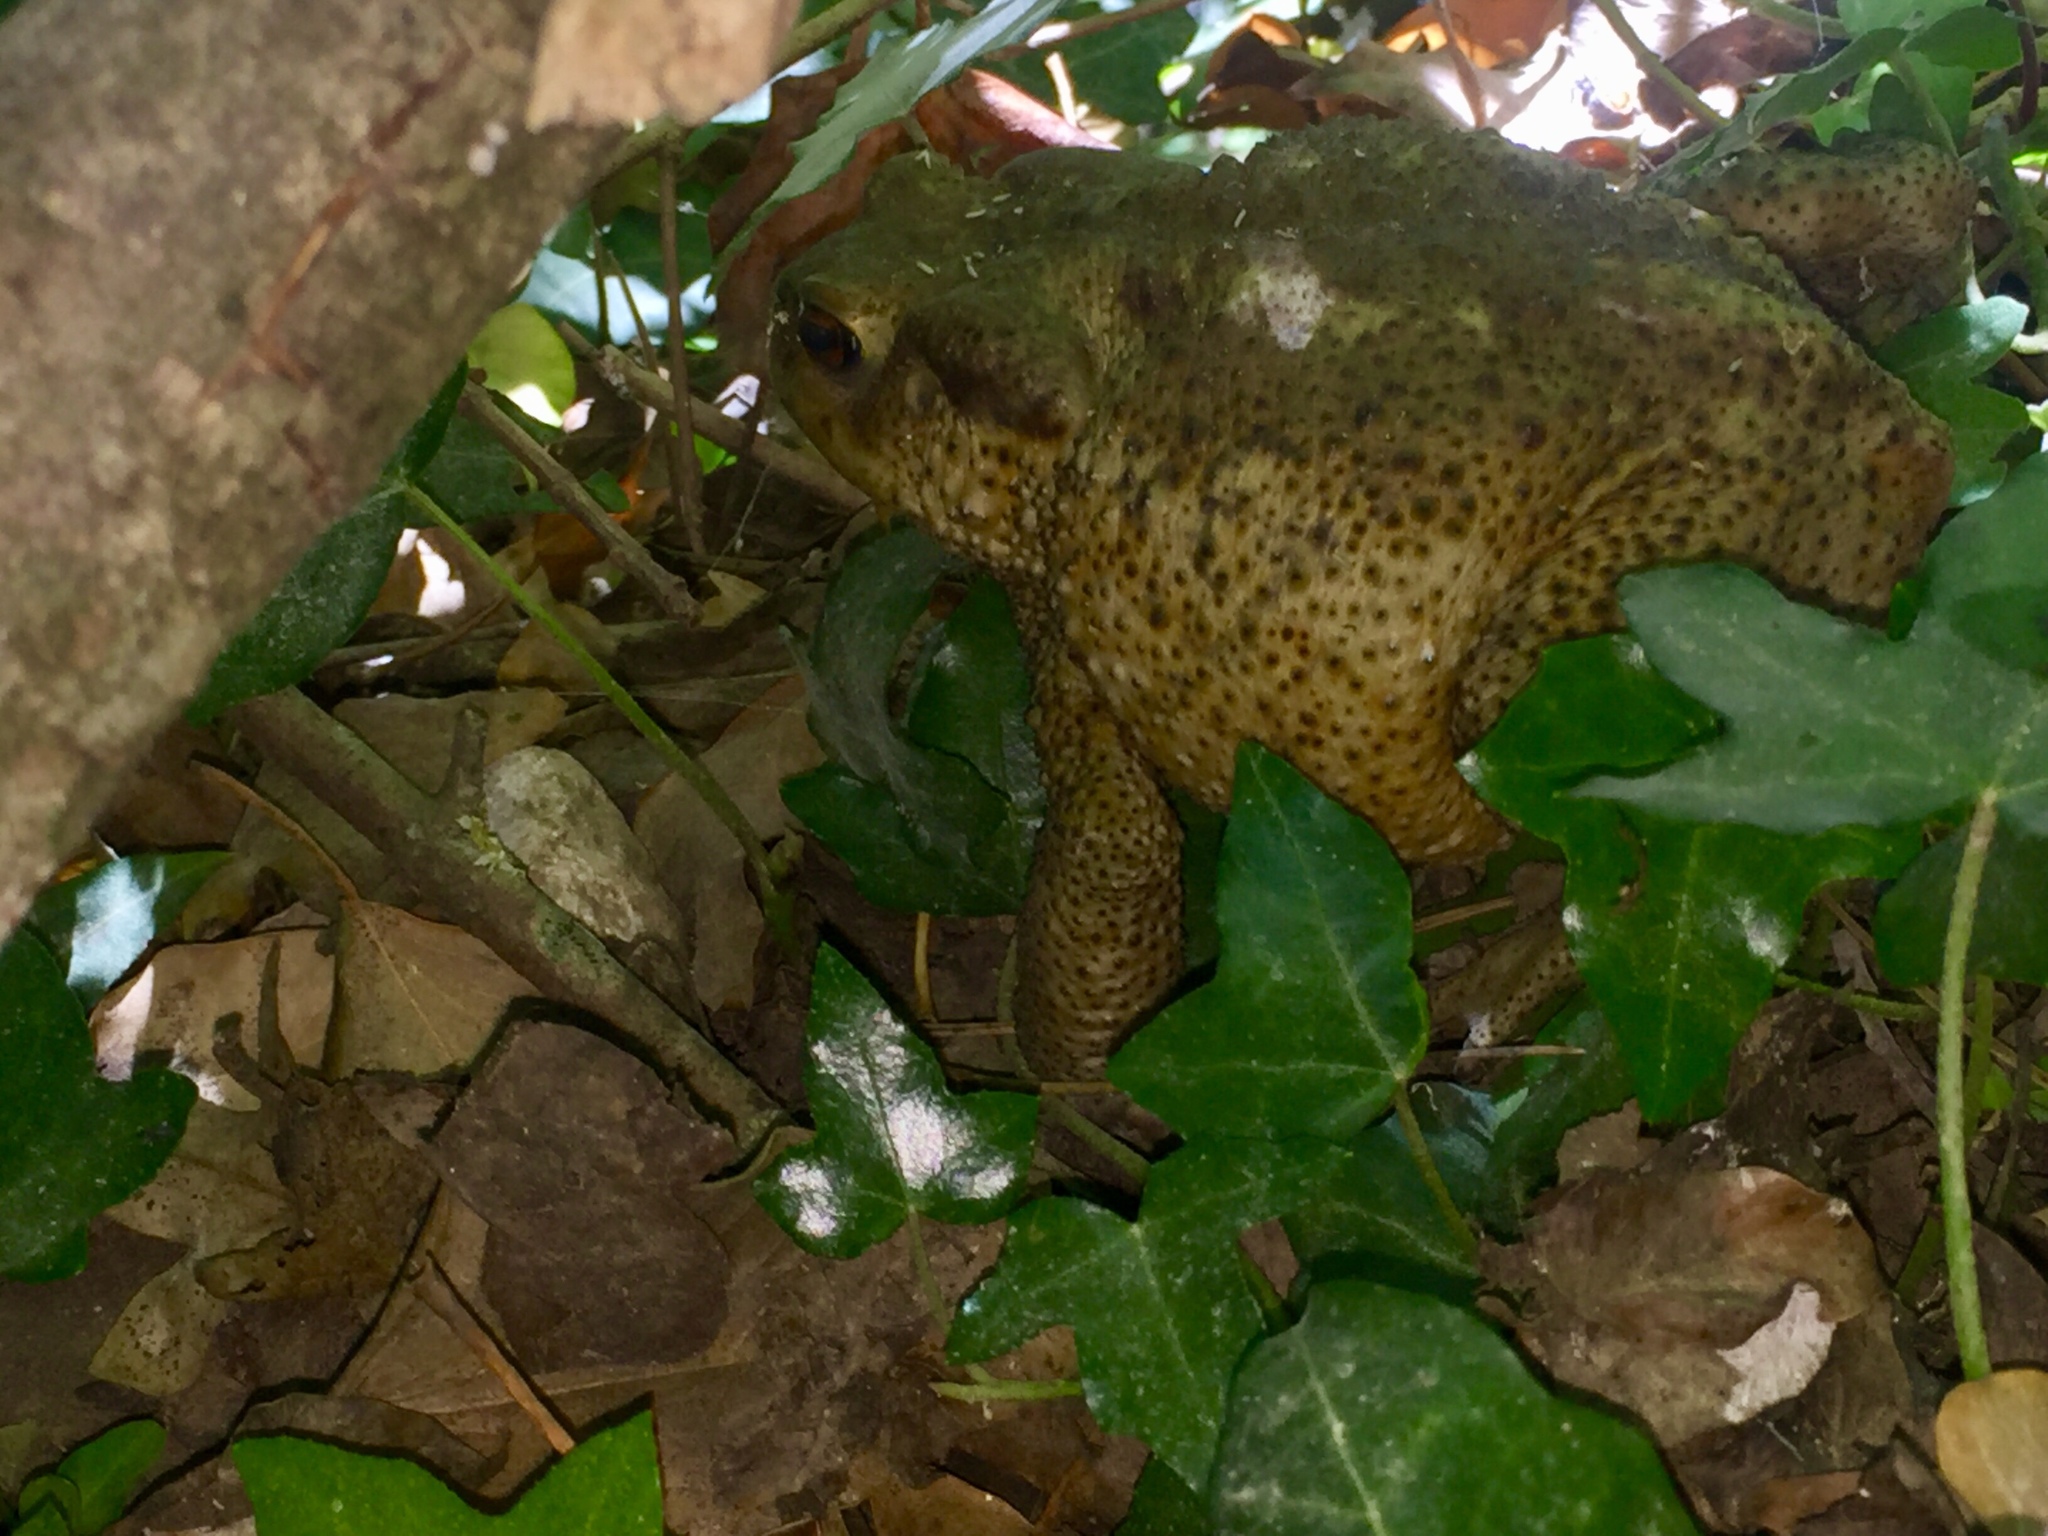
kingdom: Animalia
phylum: Chordata
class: Amphibia
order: Anura
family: Bufonidae
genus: Bufo
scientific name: Bufo bufo
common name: Common toad
